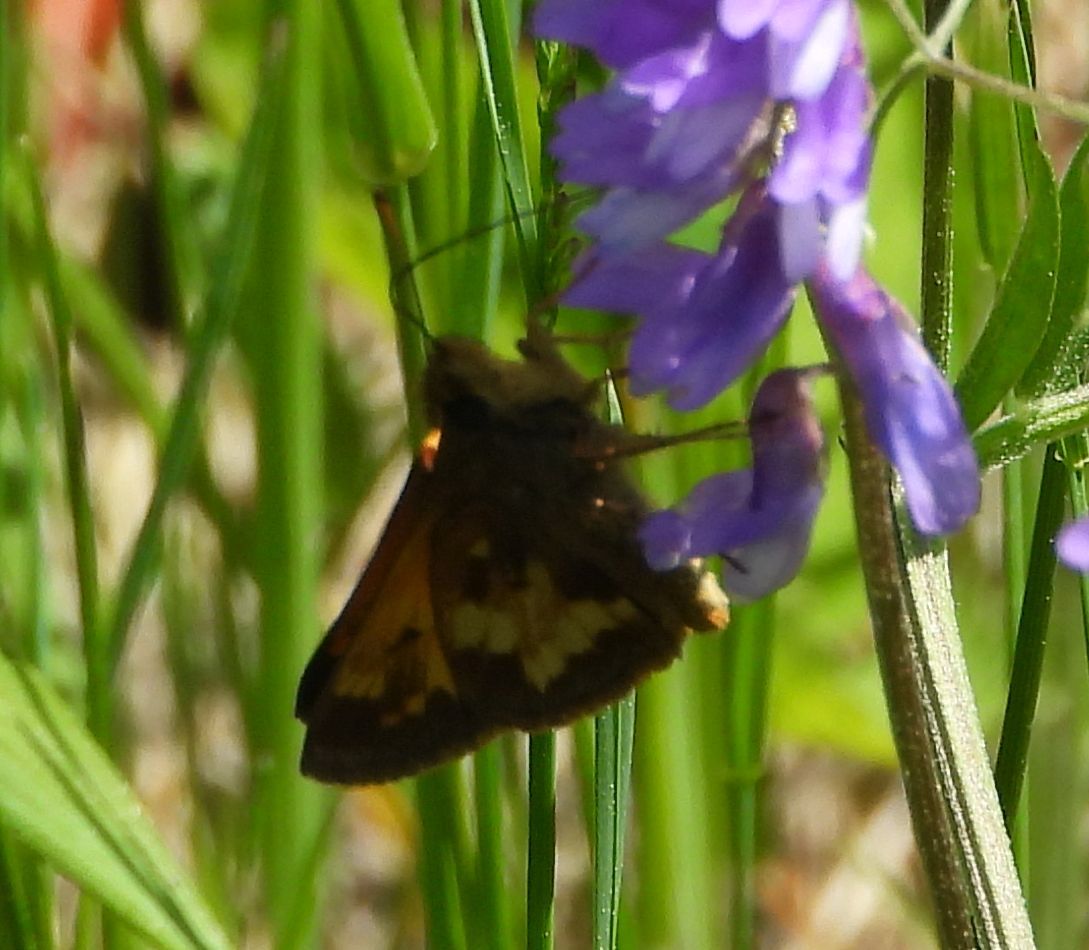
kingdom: Animalia
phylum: Arthropoda
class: Insecta
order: Lepidoptera
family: Hesperiidae
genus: Lon
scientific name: Lon hobomok
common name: Hobomok skipper
